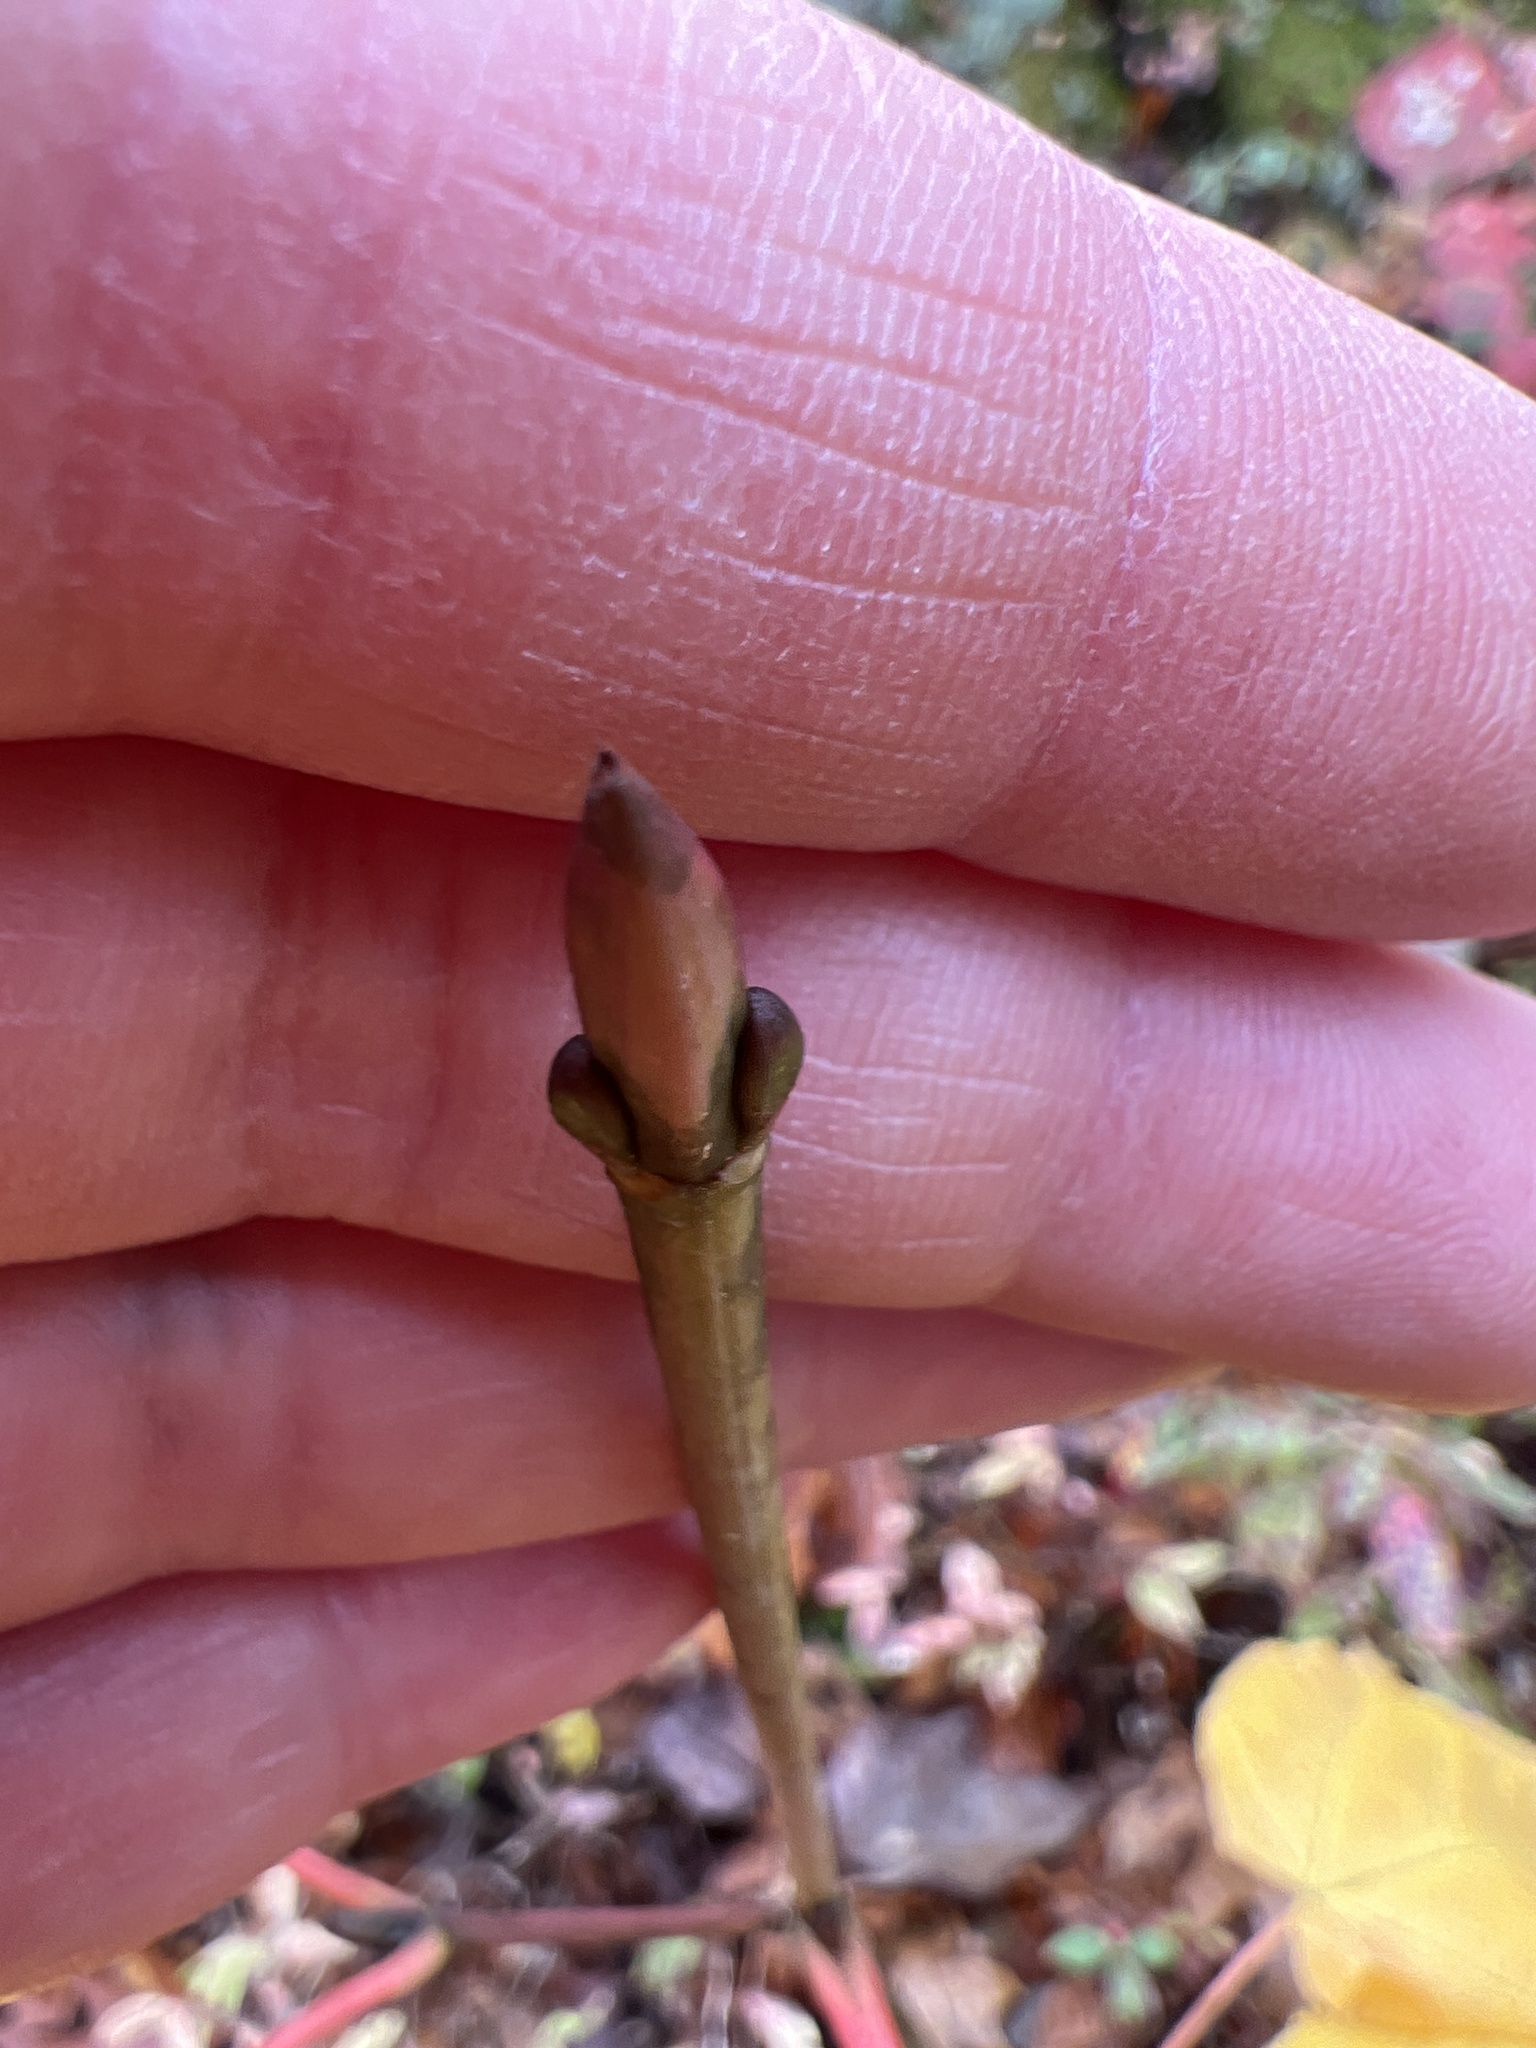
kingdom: Plantae
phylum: Tracheophyta
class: Magnoliopsida
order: Sapindales
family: Sapindaceae
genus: Acer
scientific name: Acer pensylvanicum
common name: Moosewood
